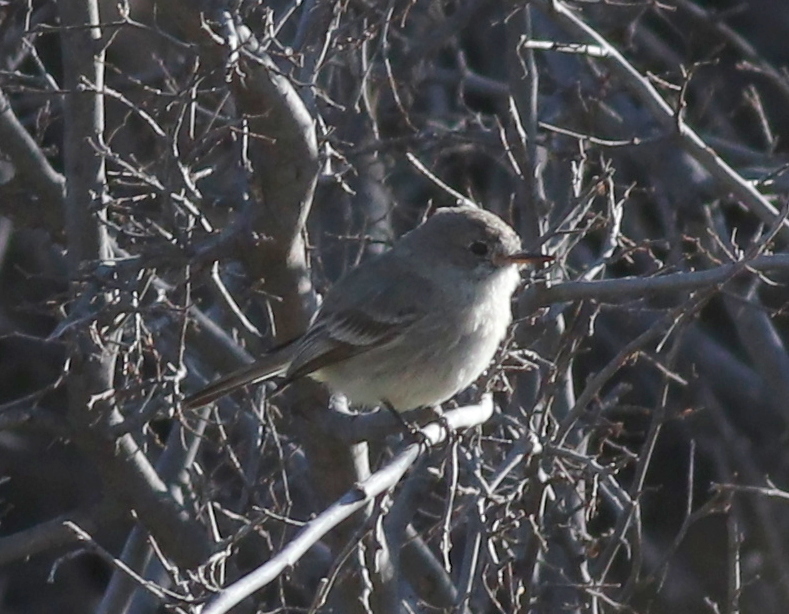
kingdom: Animalia
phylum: Chordata
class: Aves
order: Passeriformes
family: Tyrannidae
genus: Empidonax
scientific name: Empidonax wrightii
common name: Gray flycatcher
